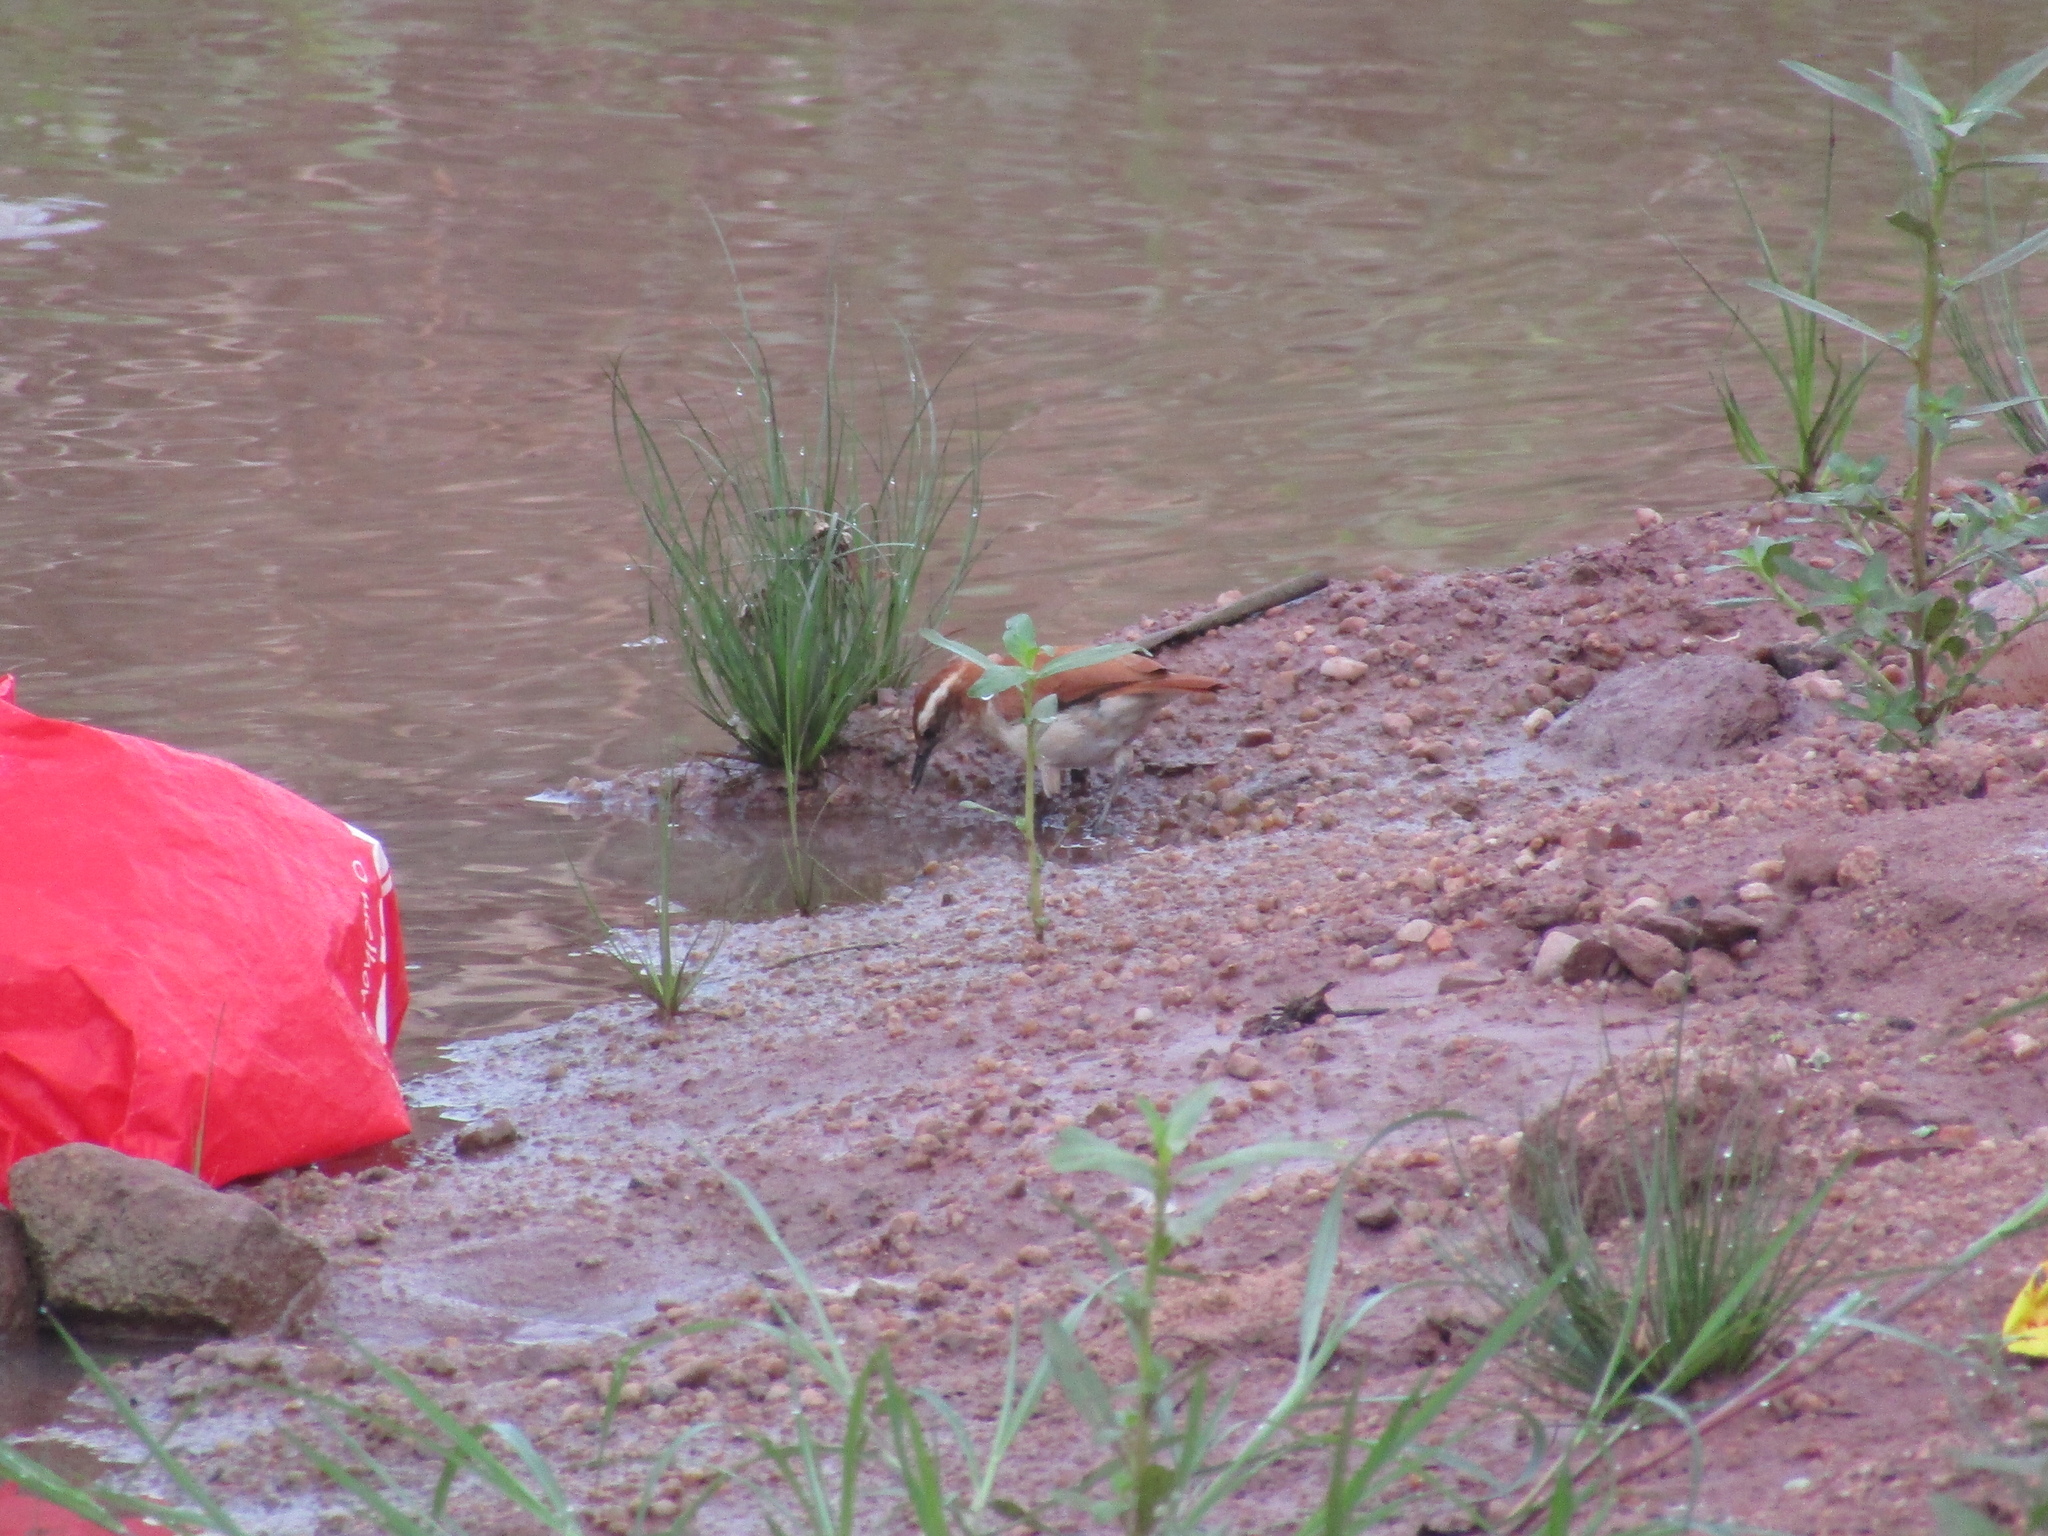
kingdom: Animalia
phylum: Chordata
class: Aves
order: Passeriformes
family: Furnariidae
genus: Furnarius
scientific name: Furnarius figulus
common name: Band-tailed hornero
